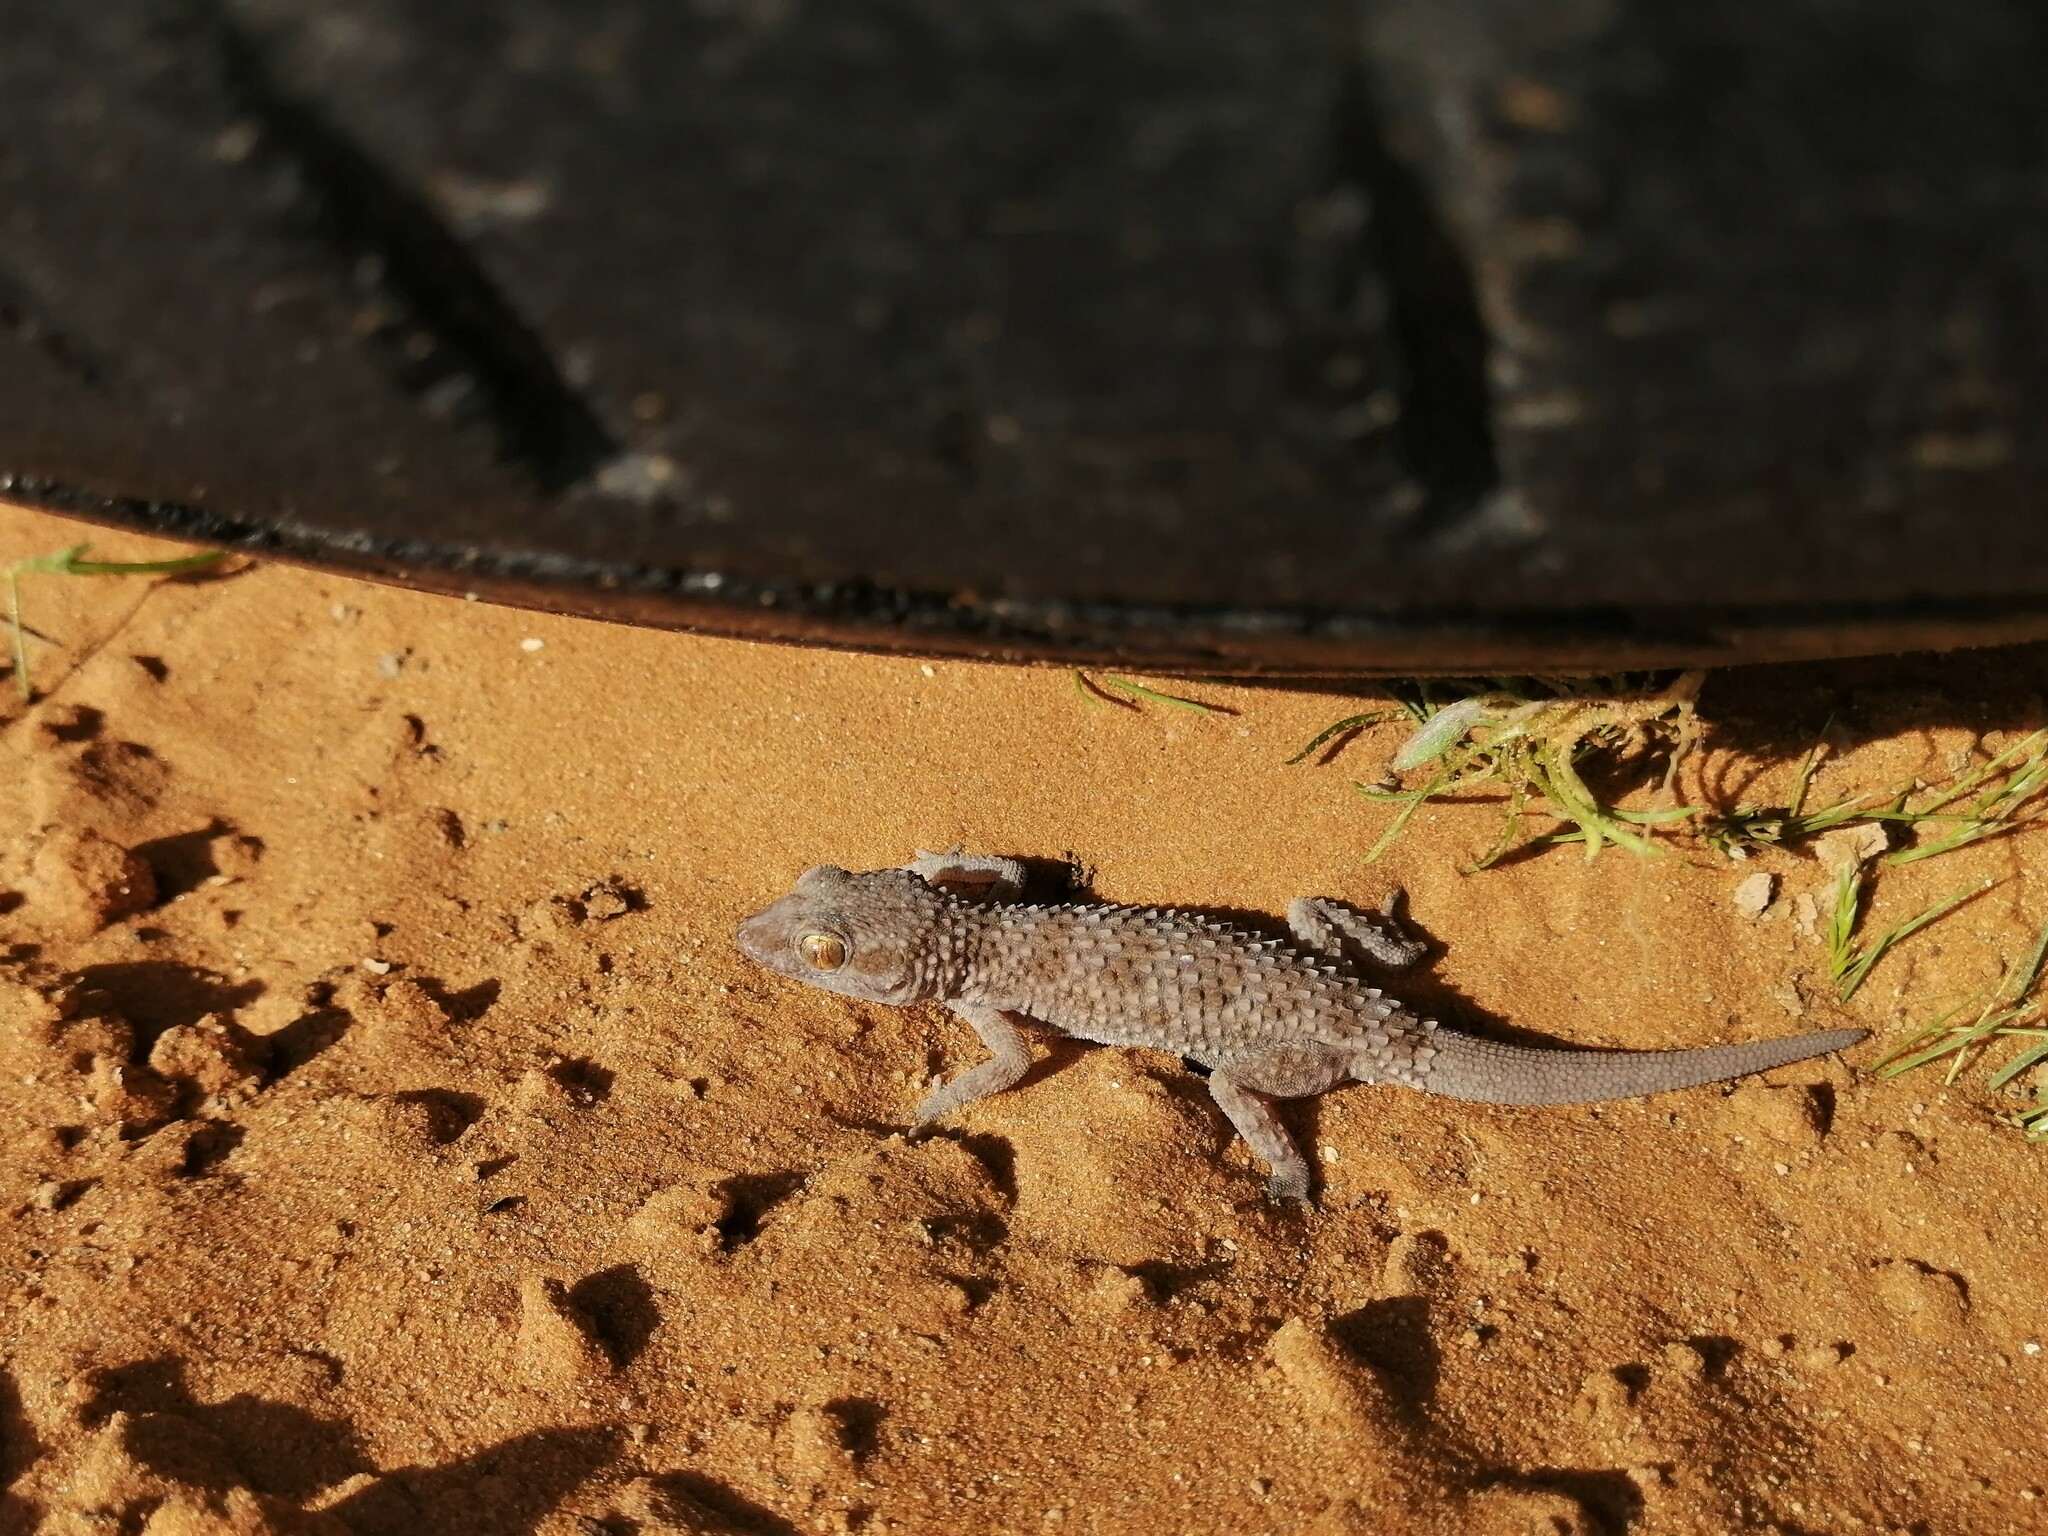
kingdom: Animalia
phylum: Chordata
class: Squamata
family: Gekkonidae
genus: Bunopus
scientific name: Bunopus tuberculatus
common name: Southern tuberculated gecko
